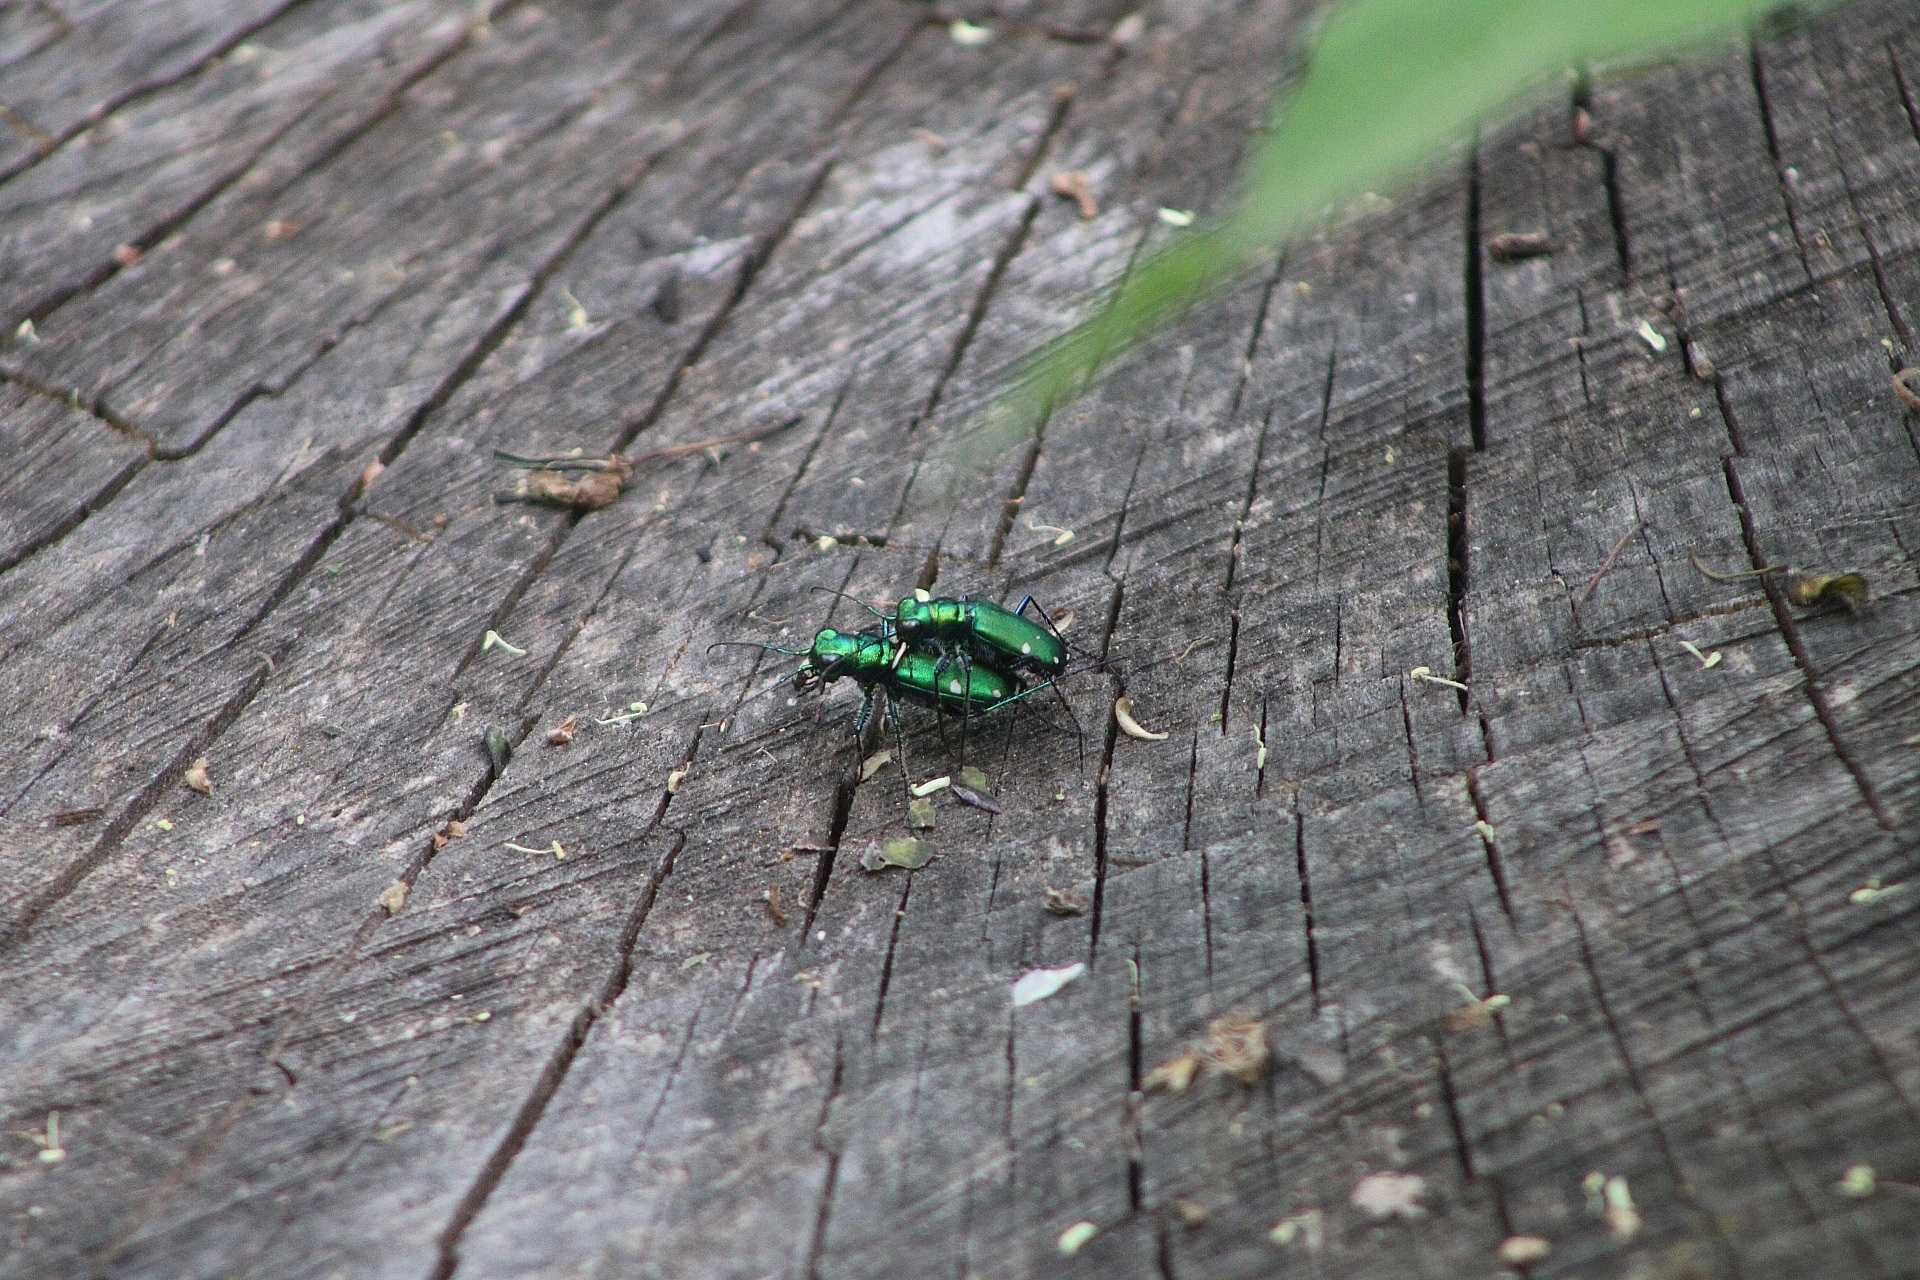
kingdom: Animalia
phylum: Arthropoda
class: Insecta
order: Coleoptera
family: Carabidae
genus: Cicindela
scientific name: Cicindela sexguttata
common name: Six-spotted tiger beetle
